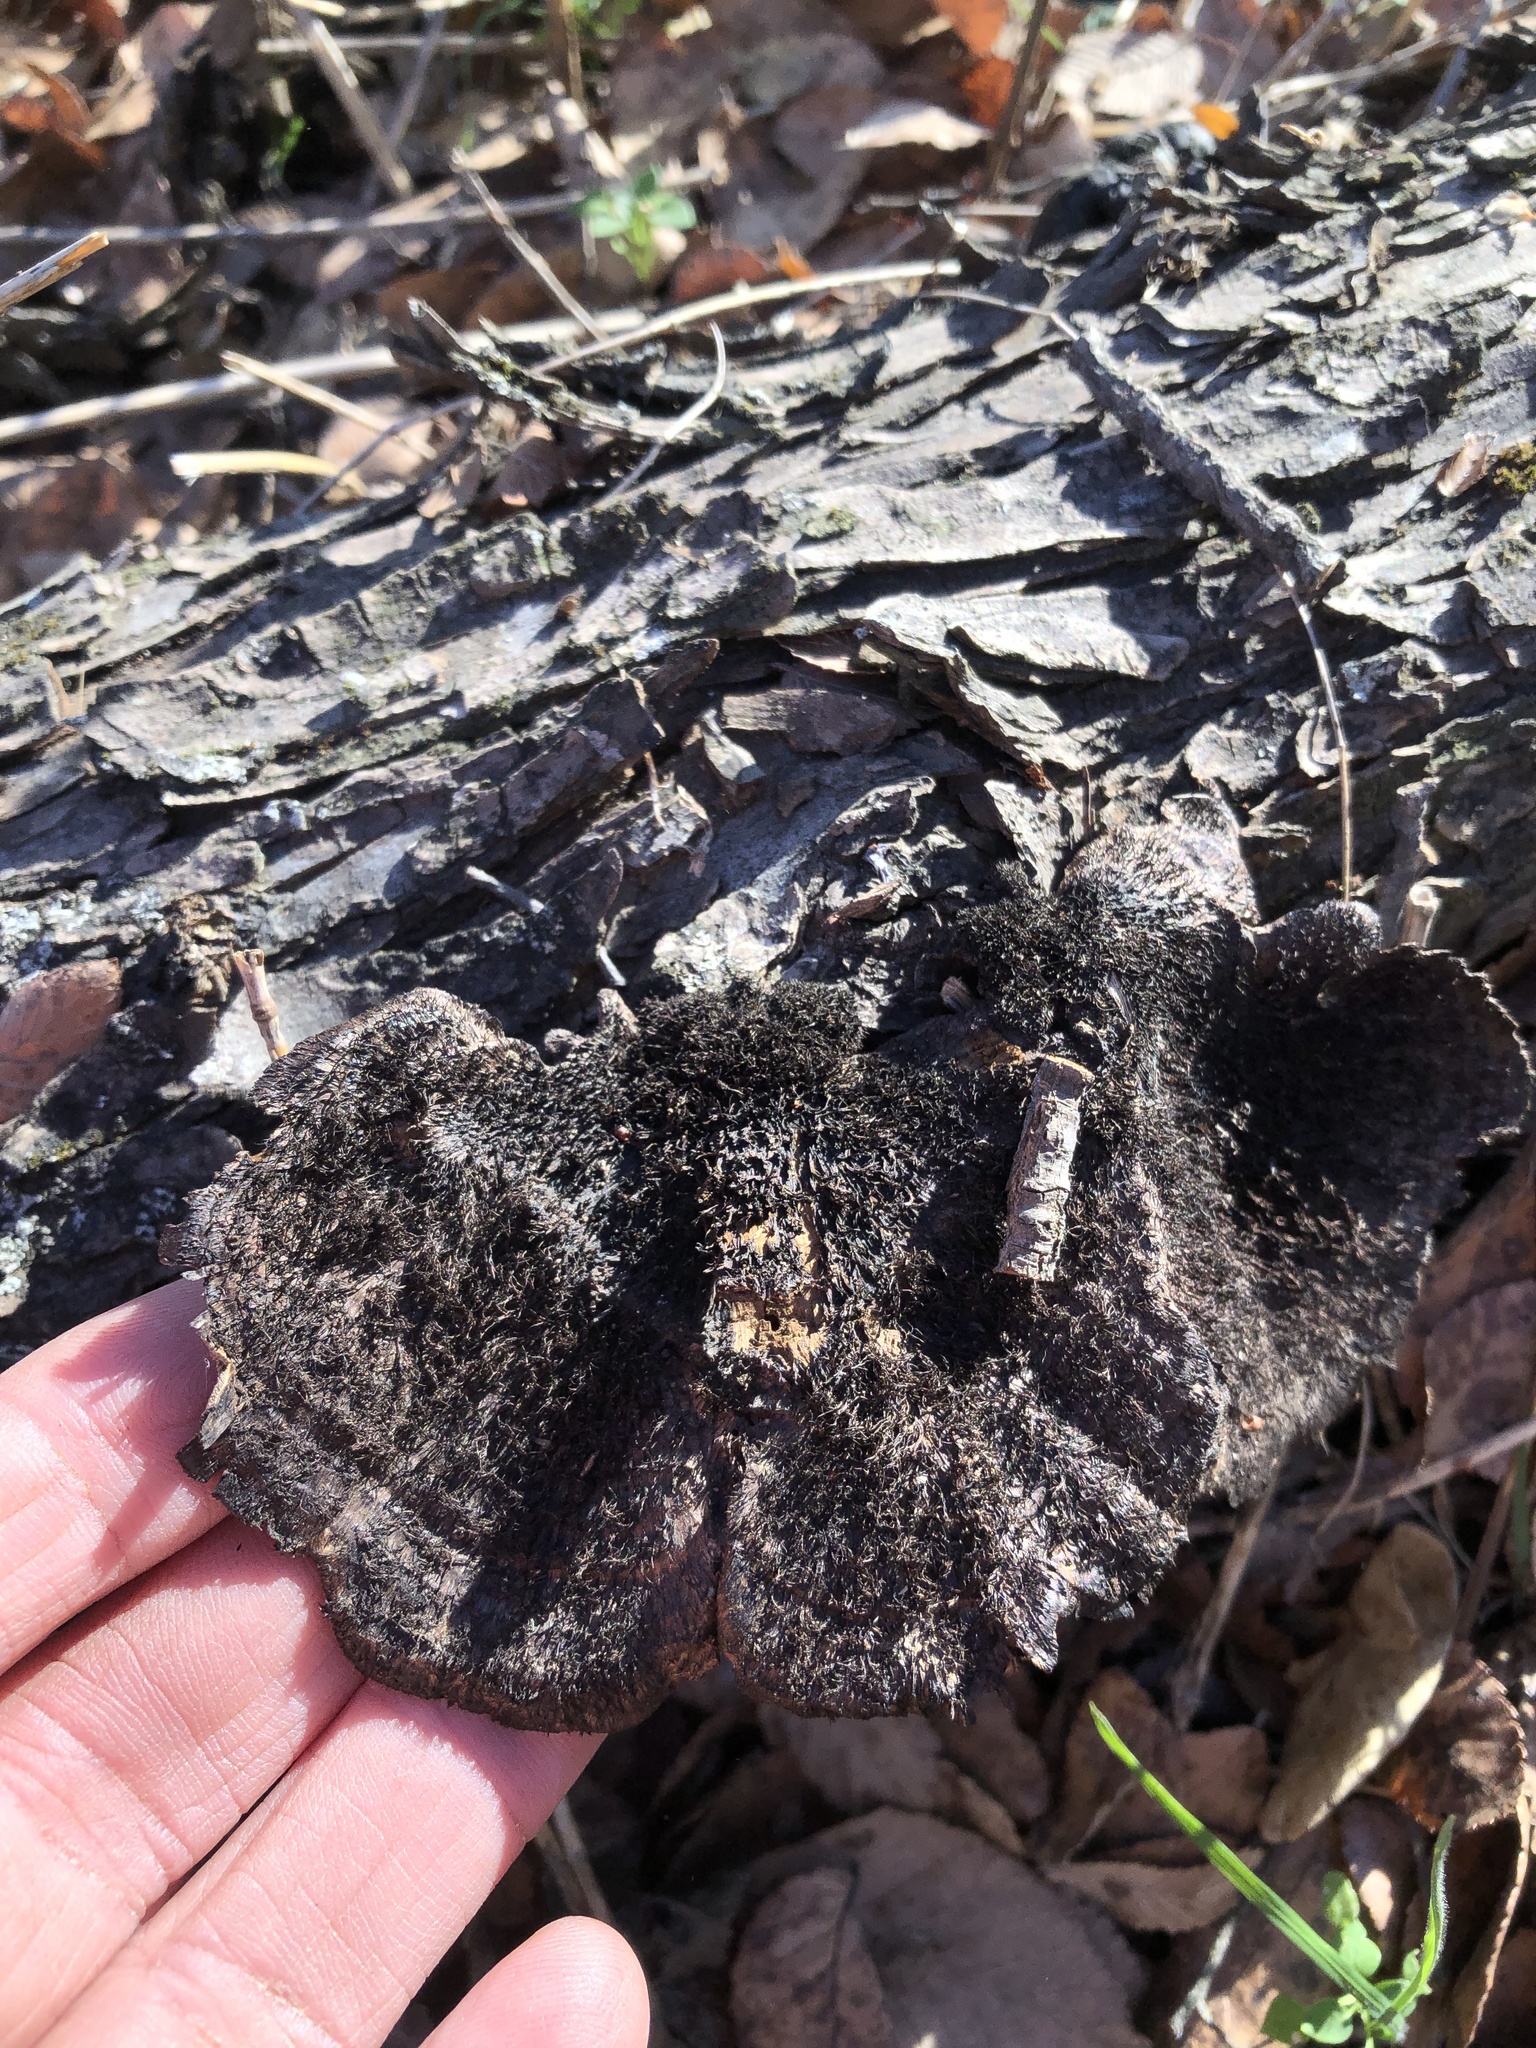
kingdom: Fungi
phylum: Basidiomycota
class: Agaricomycetes
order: Polyporales
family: Cerrenaceae
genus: Cerrena
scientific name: Cerrena hydnoides
